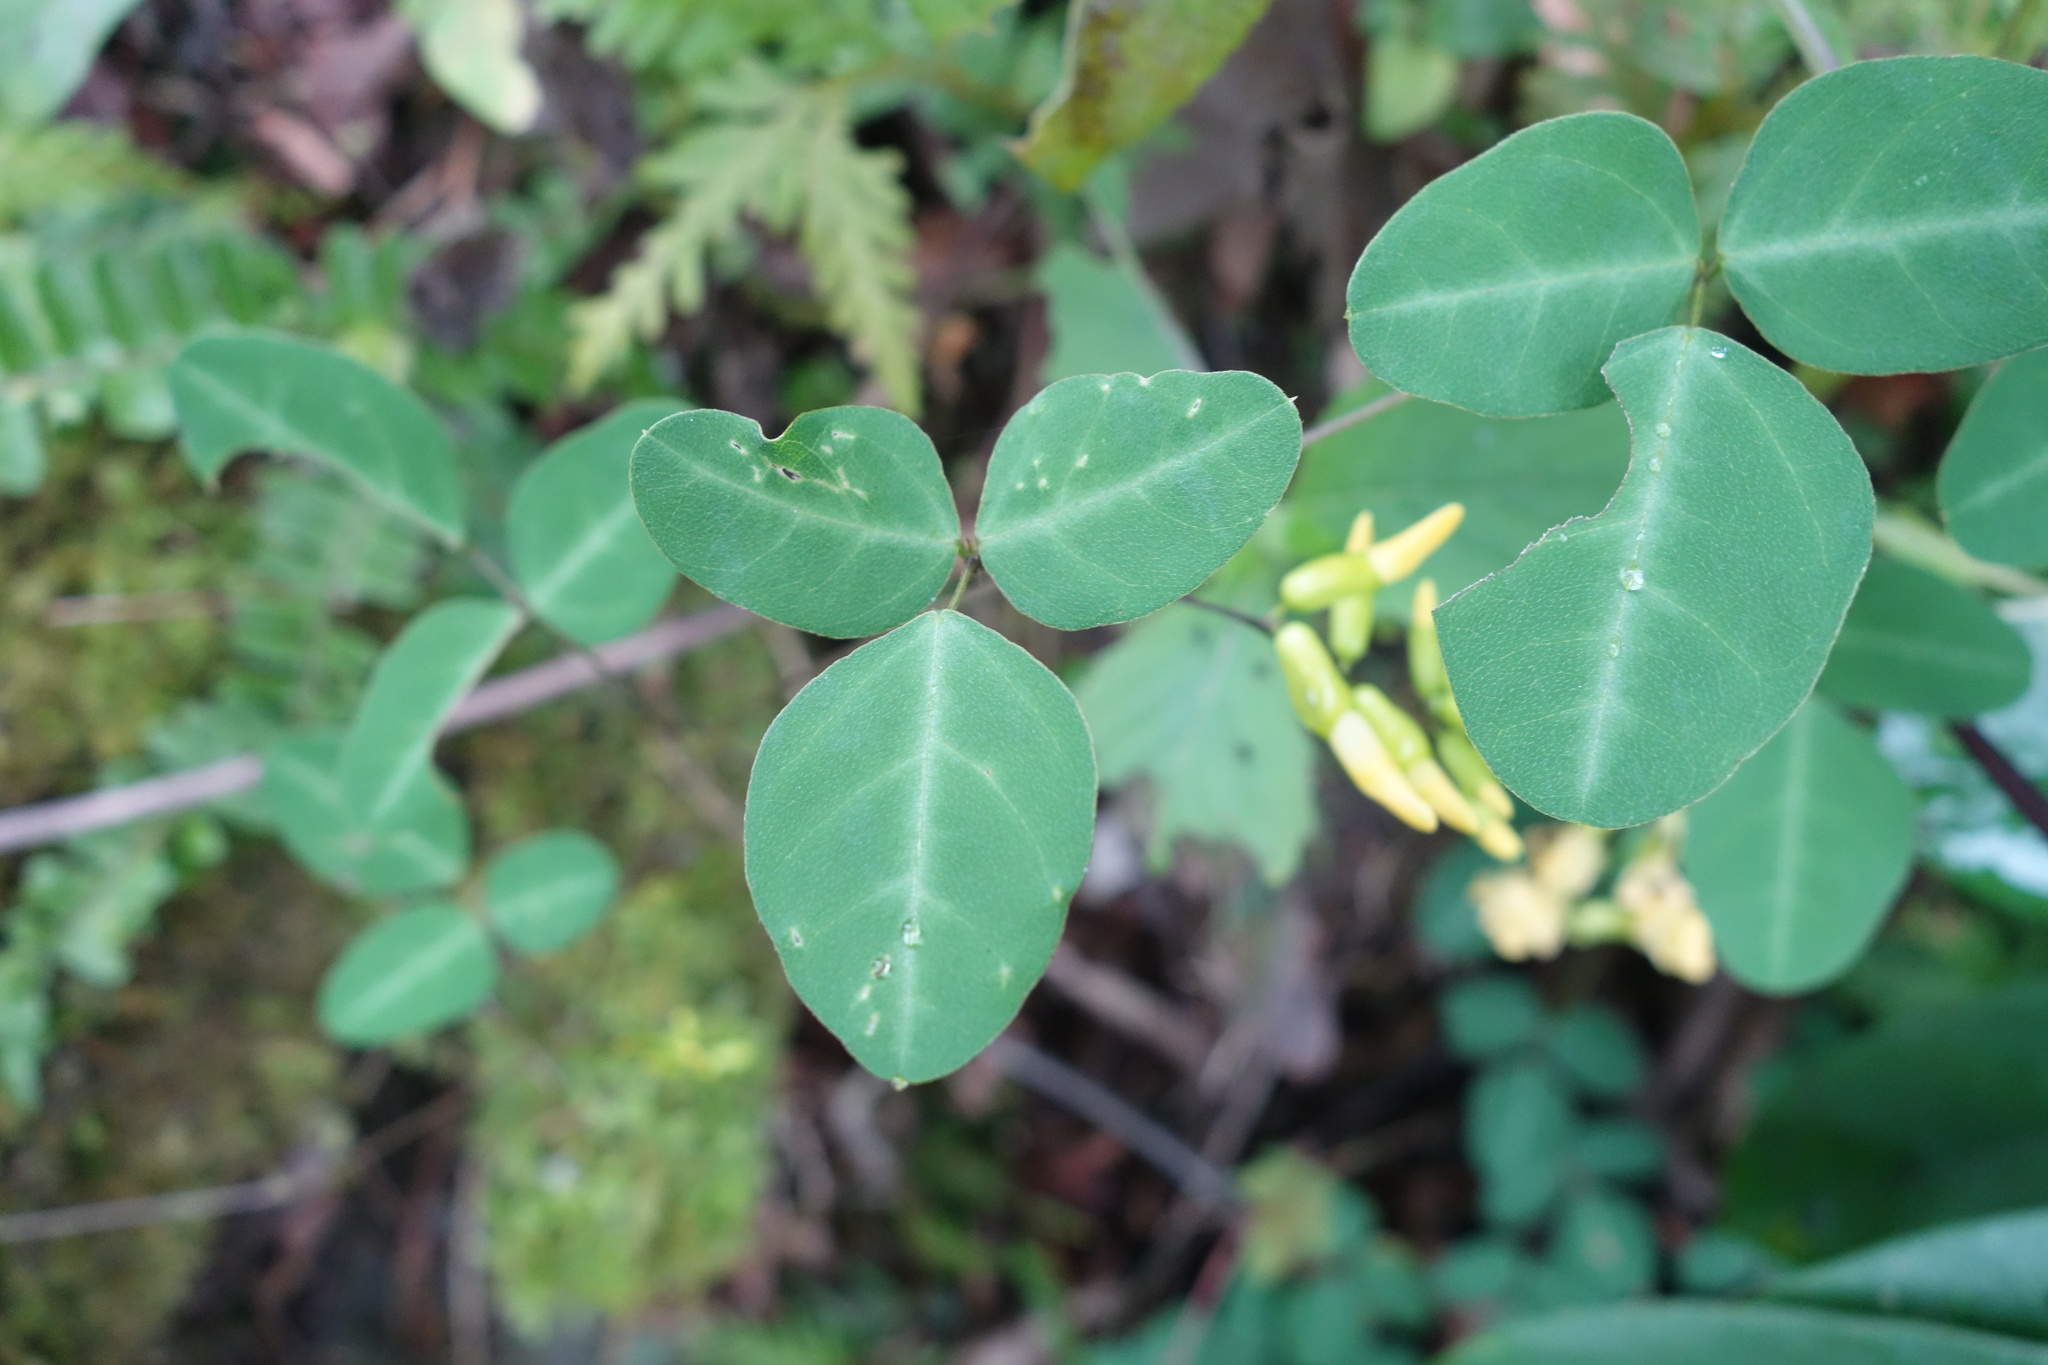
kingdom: Plantae
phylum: Tracheophyta
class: Magnoliopsida
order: Fabales
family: Fabaceae
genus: Dumasia
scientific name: Dumasia villosa
